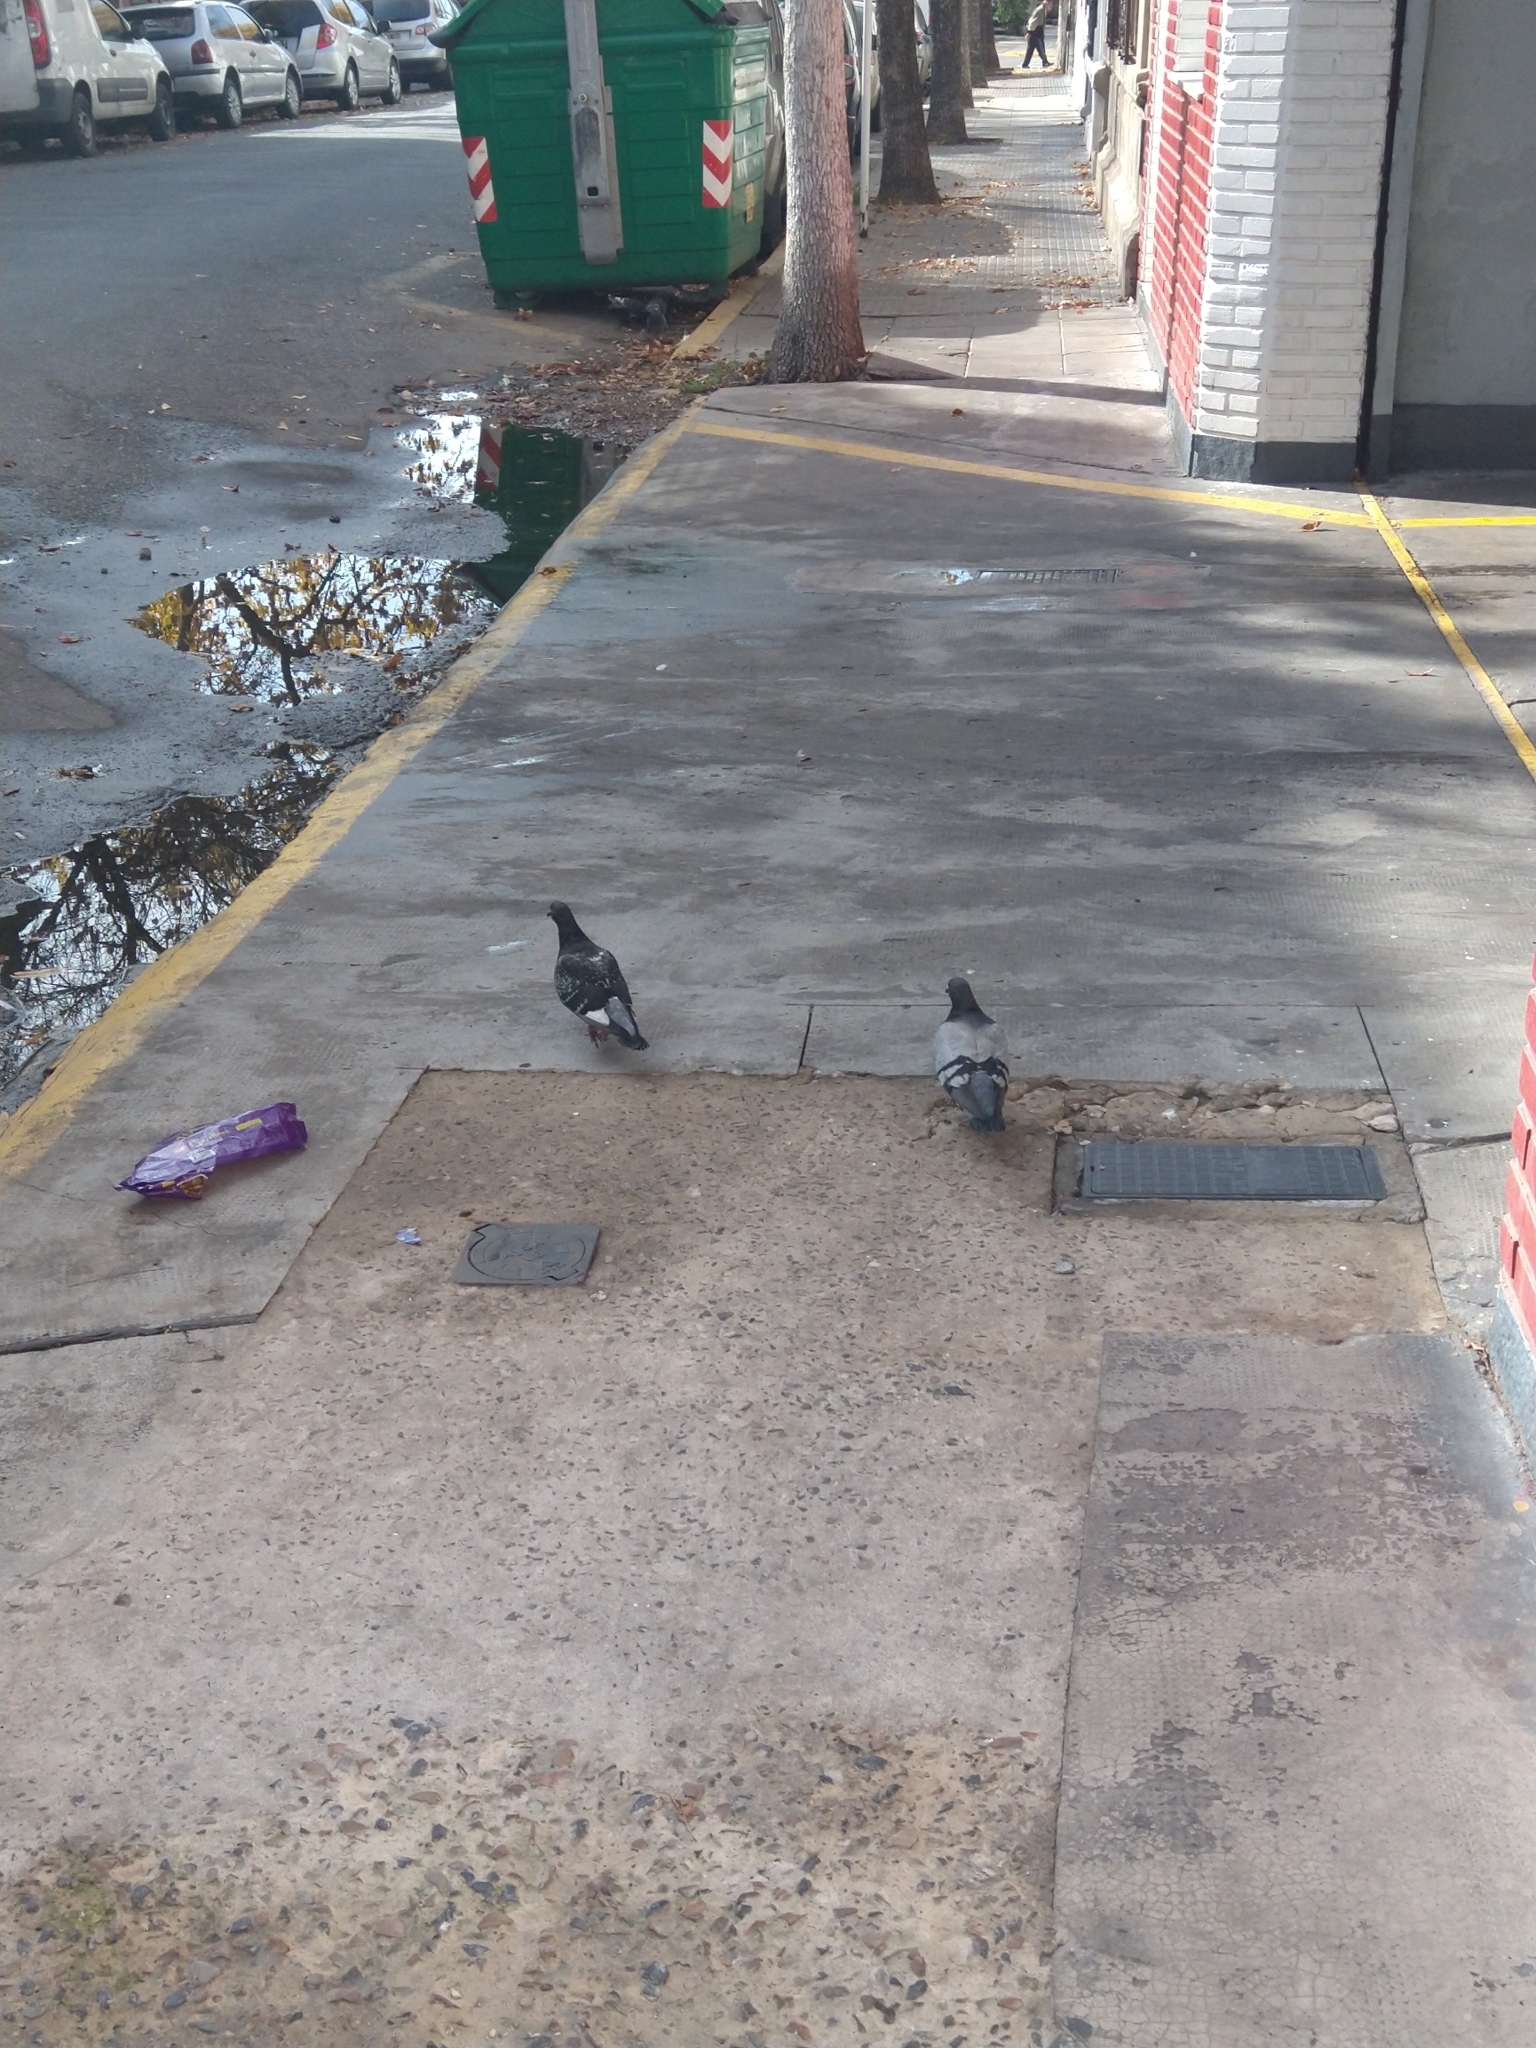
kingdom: Animalia
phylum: Chordata
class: Aves
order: Columbiformes
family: Columbidae
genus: Columba
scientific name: Columba livia
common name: Rock pigeon
